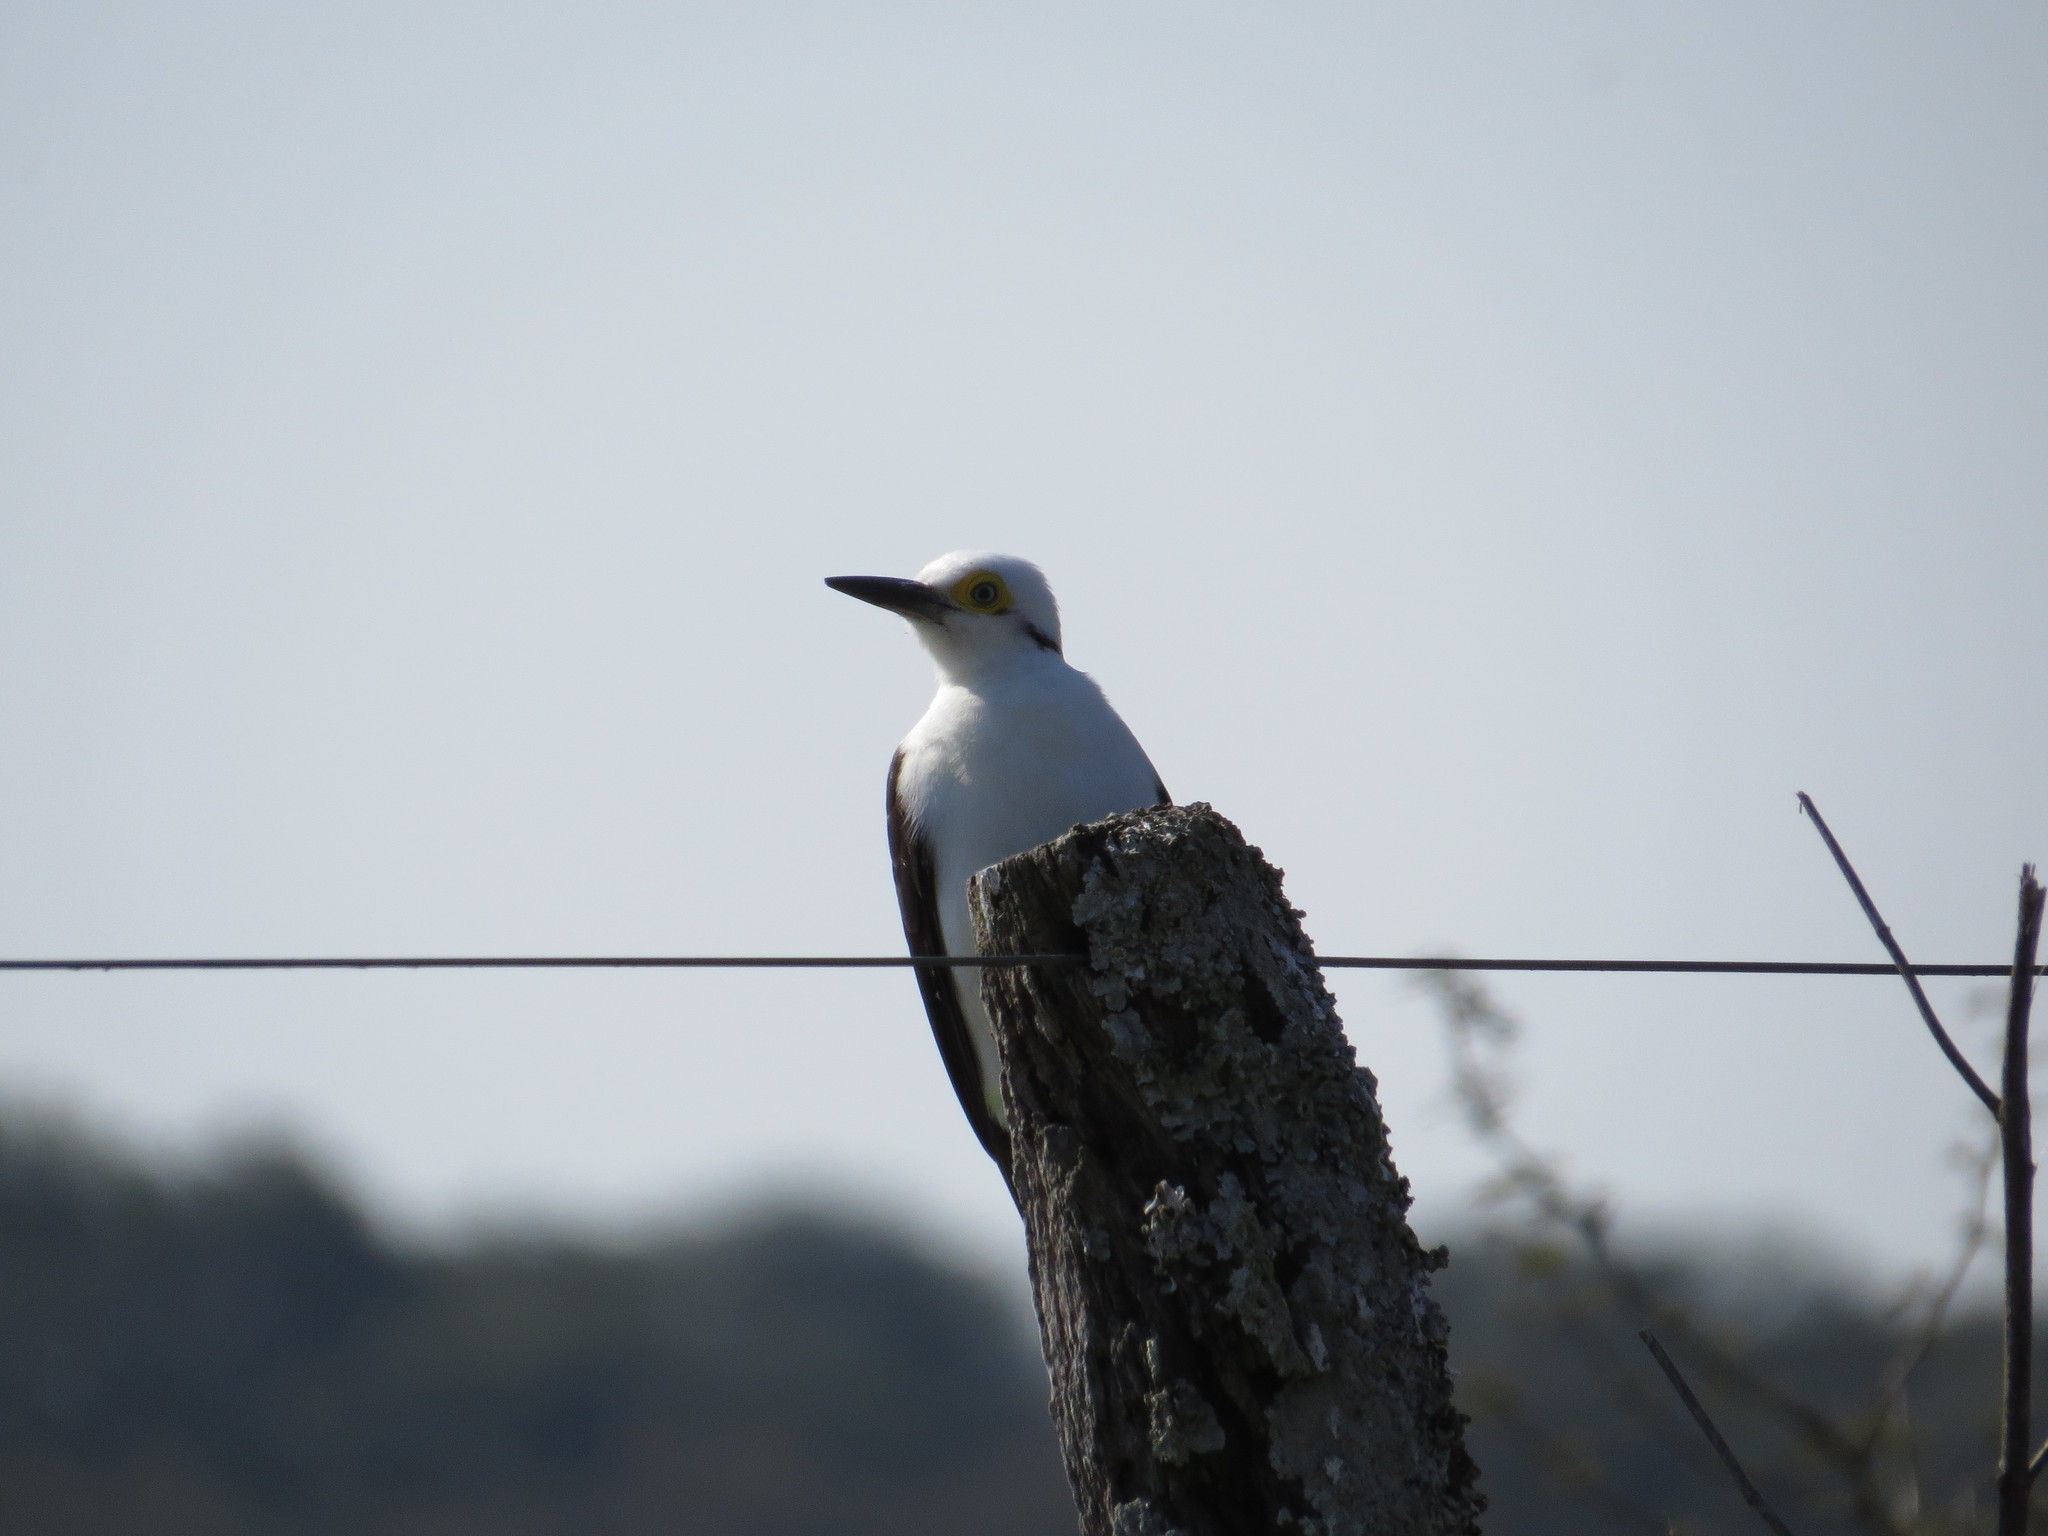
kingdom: Animalia
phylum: Chordata
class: Aves
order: Piciformes
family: Picidae
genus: Melanerpes
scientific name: Melanerpes candidus
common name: White woodpecker
